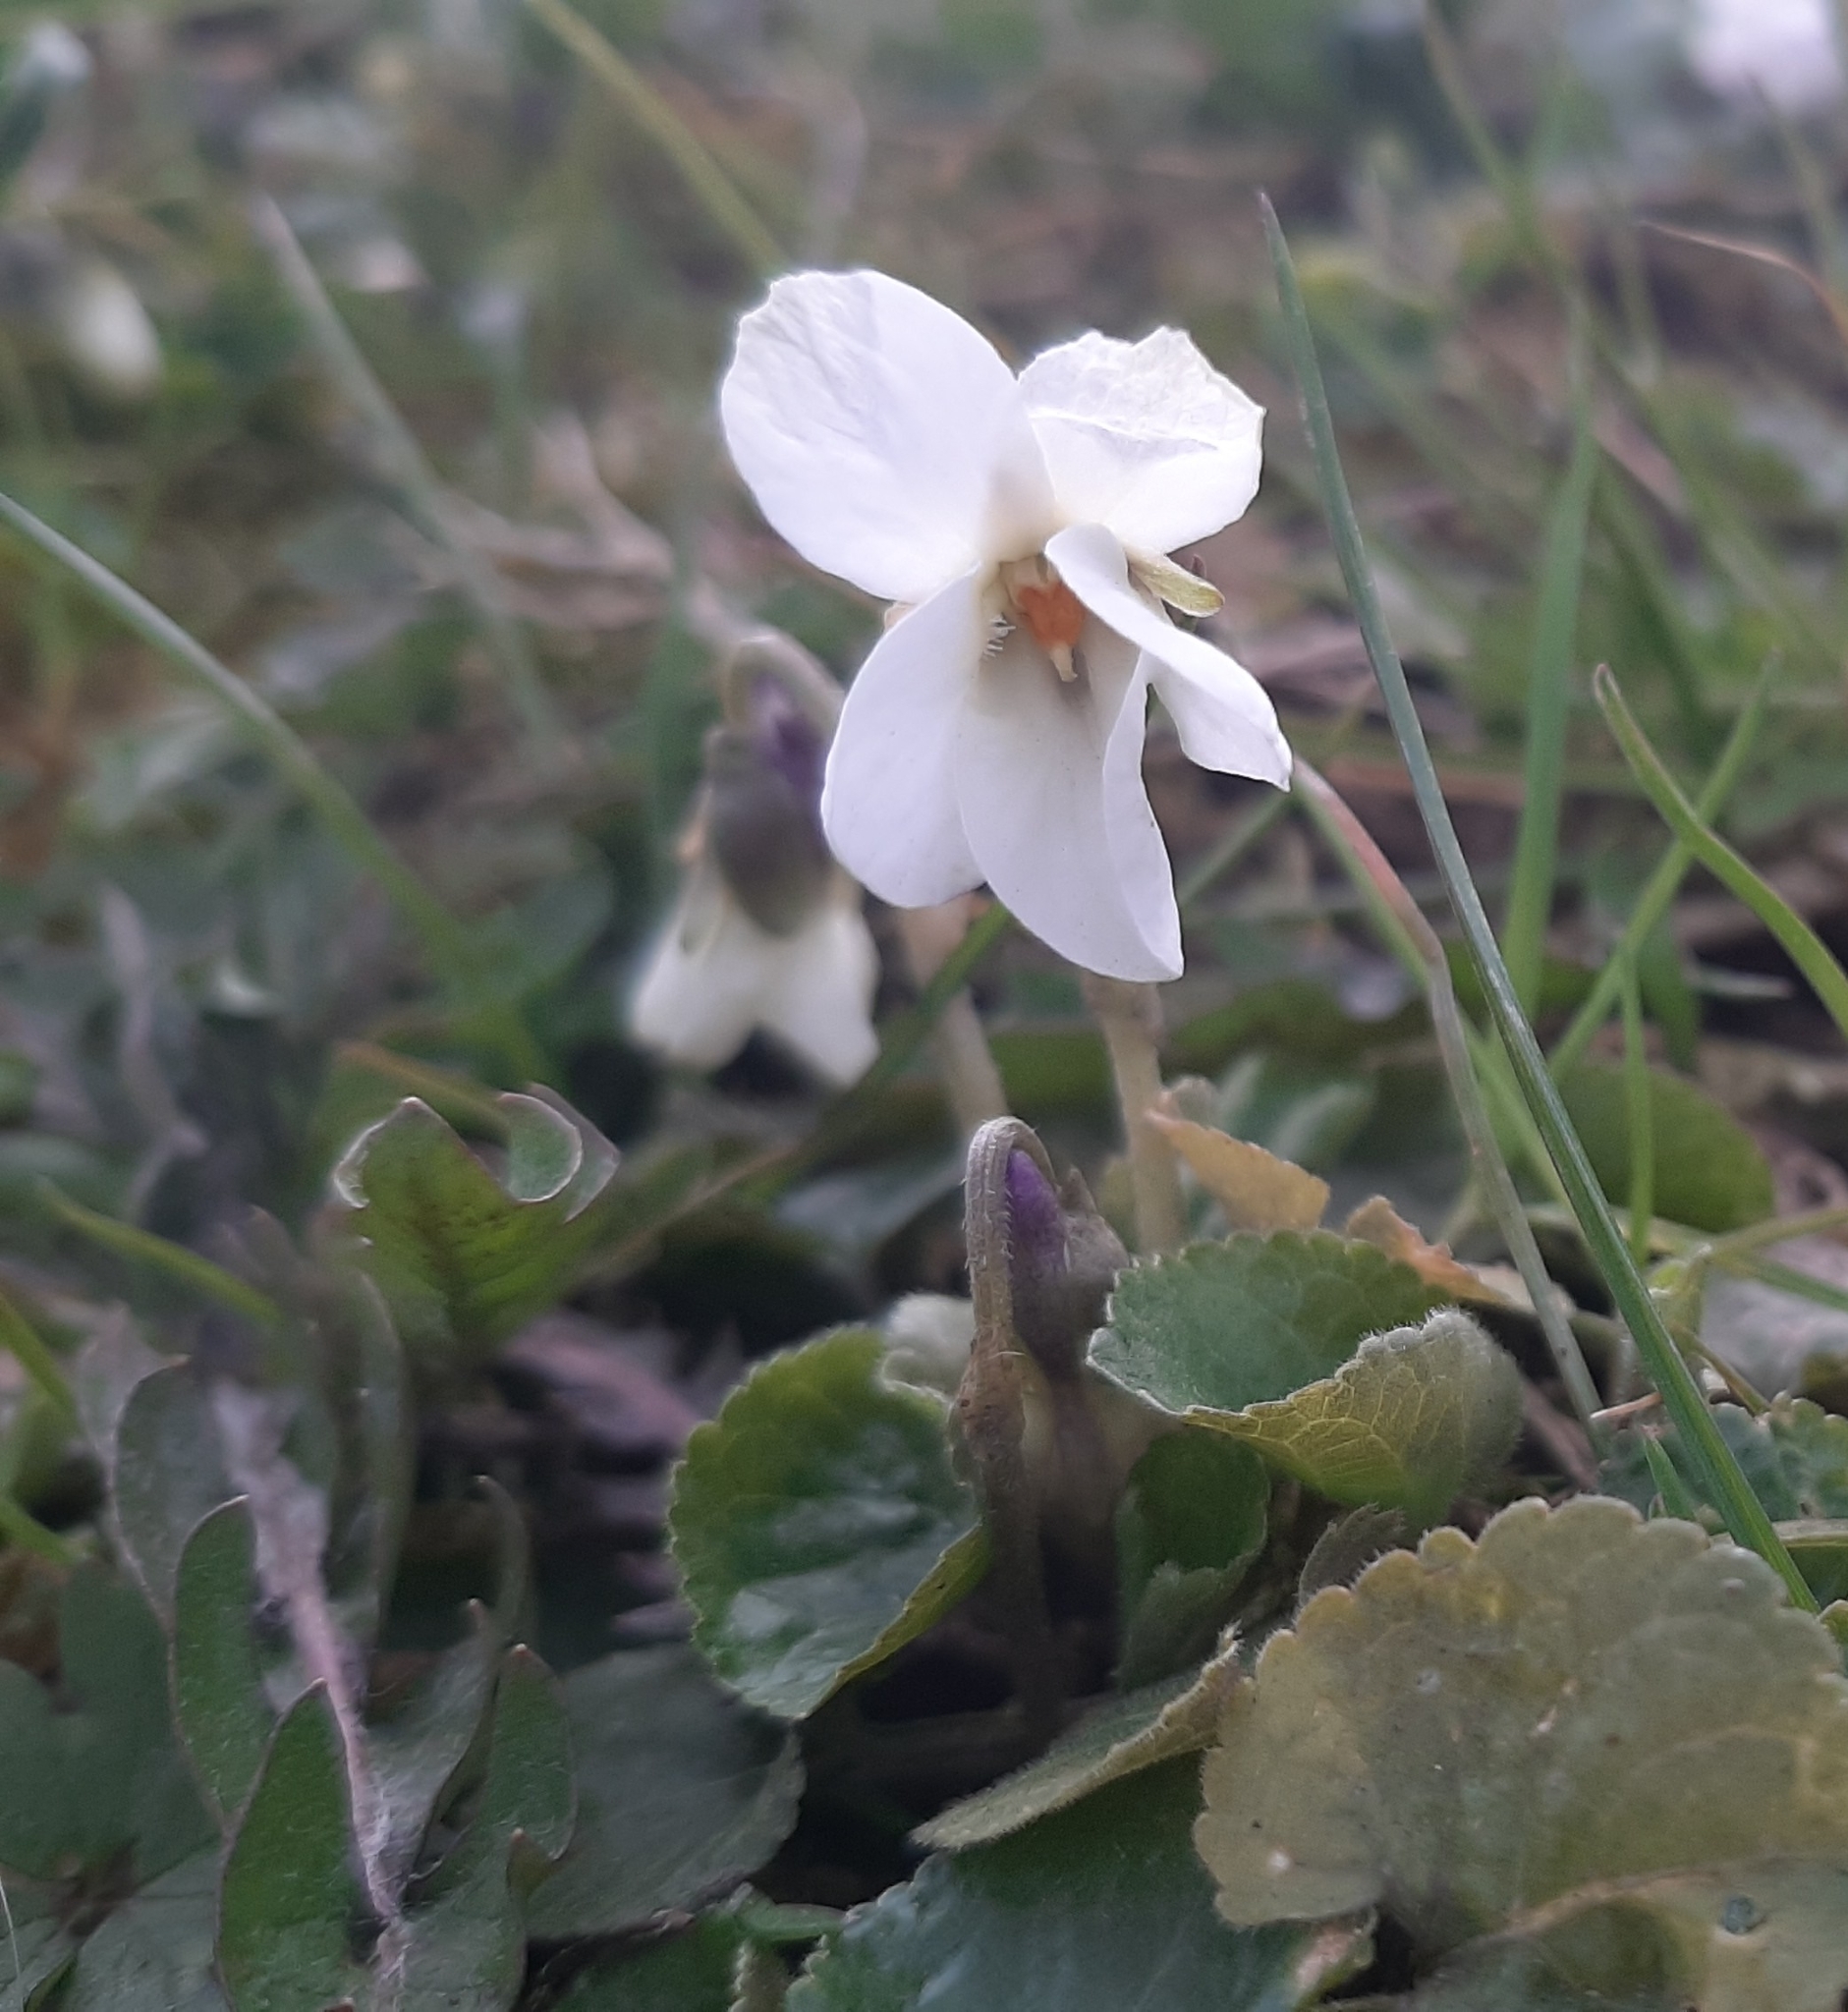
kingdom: Plantae
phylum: Tracheophyta
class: Magnoliopsida
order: Malpighiales
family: Violaceae
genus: Viola
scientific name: Viola odorata
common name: Sweet violet
